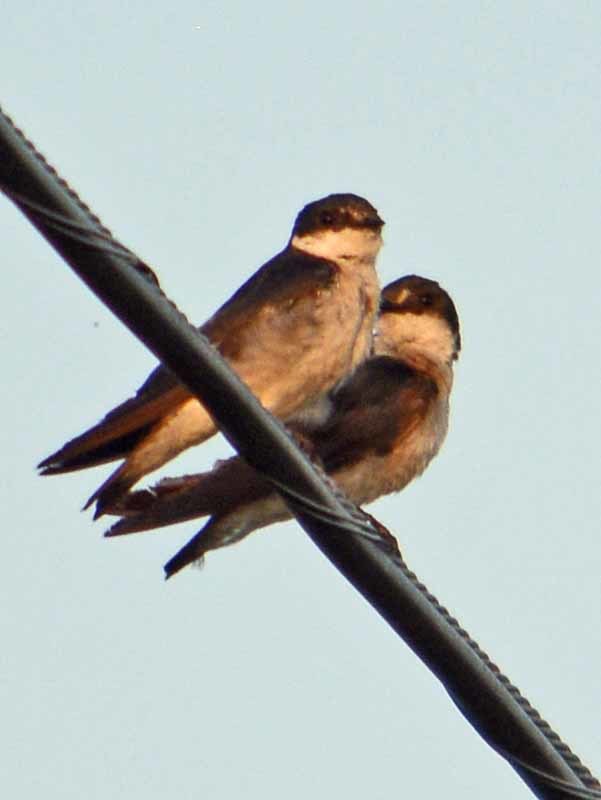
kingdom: Animalia
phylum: Chordata
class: Aves
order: Passeriformes
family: Hirundinidae
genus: Tachycineta
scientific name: Tachycineta albilinea
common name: Mangrove swallow
